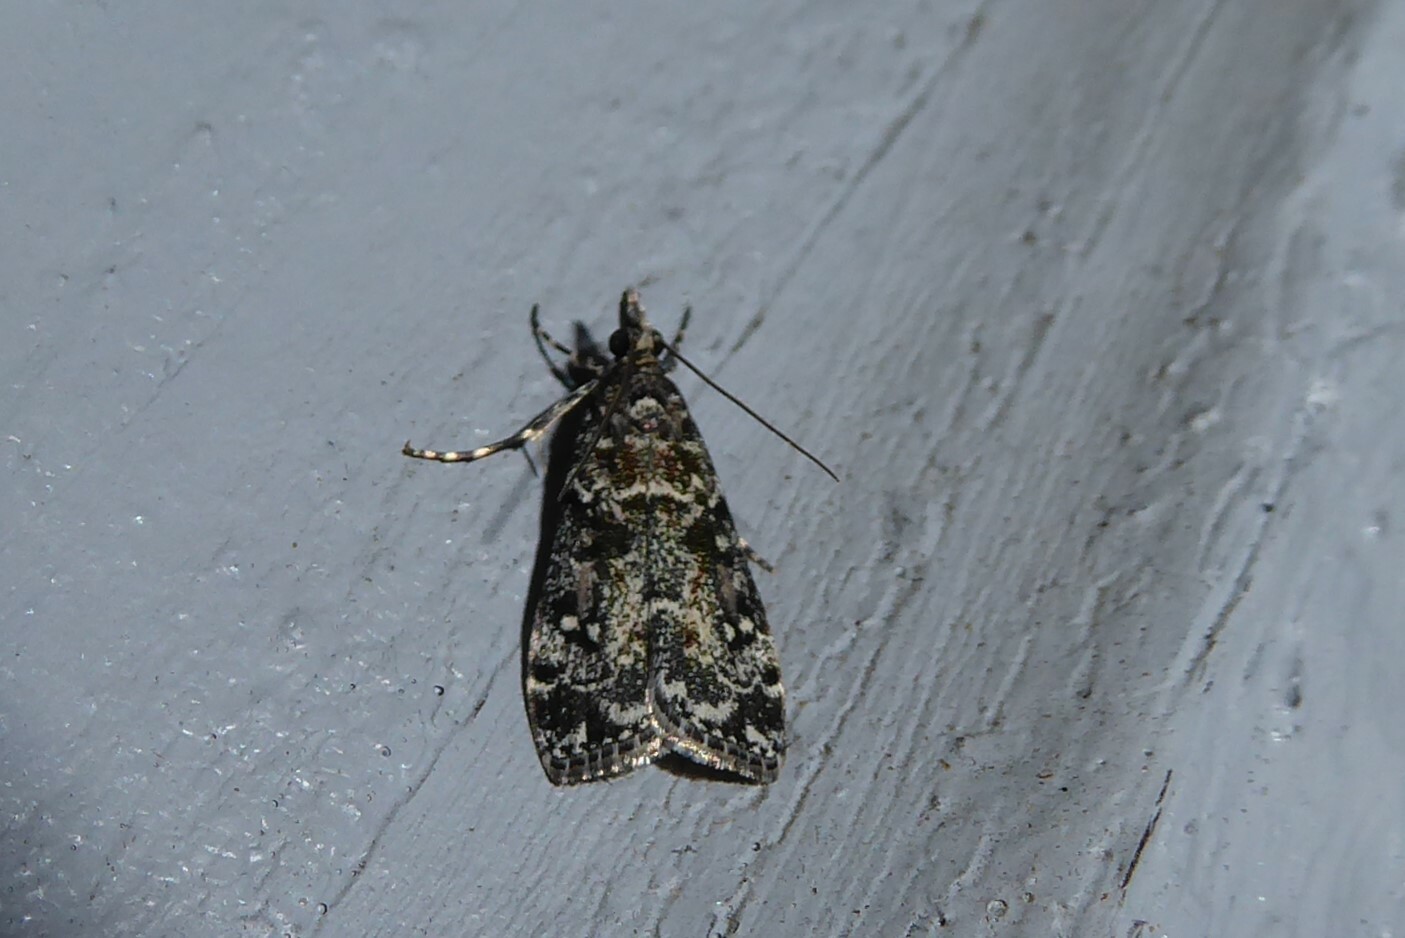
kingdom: Animalia
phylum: Arthropoda
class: Insecta
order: Lepidoptera
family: Crambidae
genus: Eudonia
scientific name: Eudonia philerga
